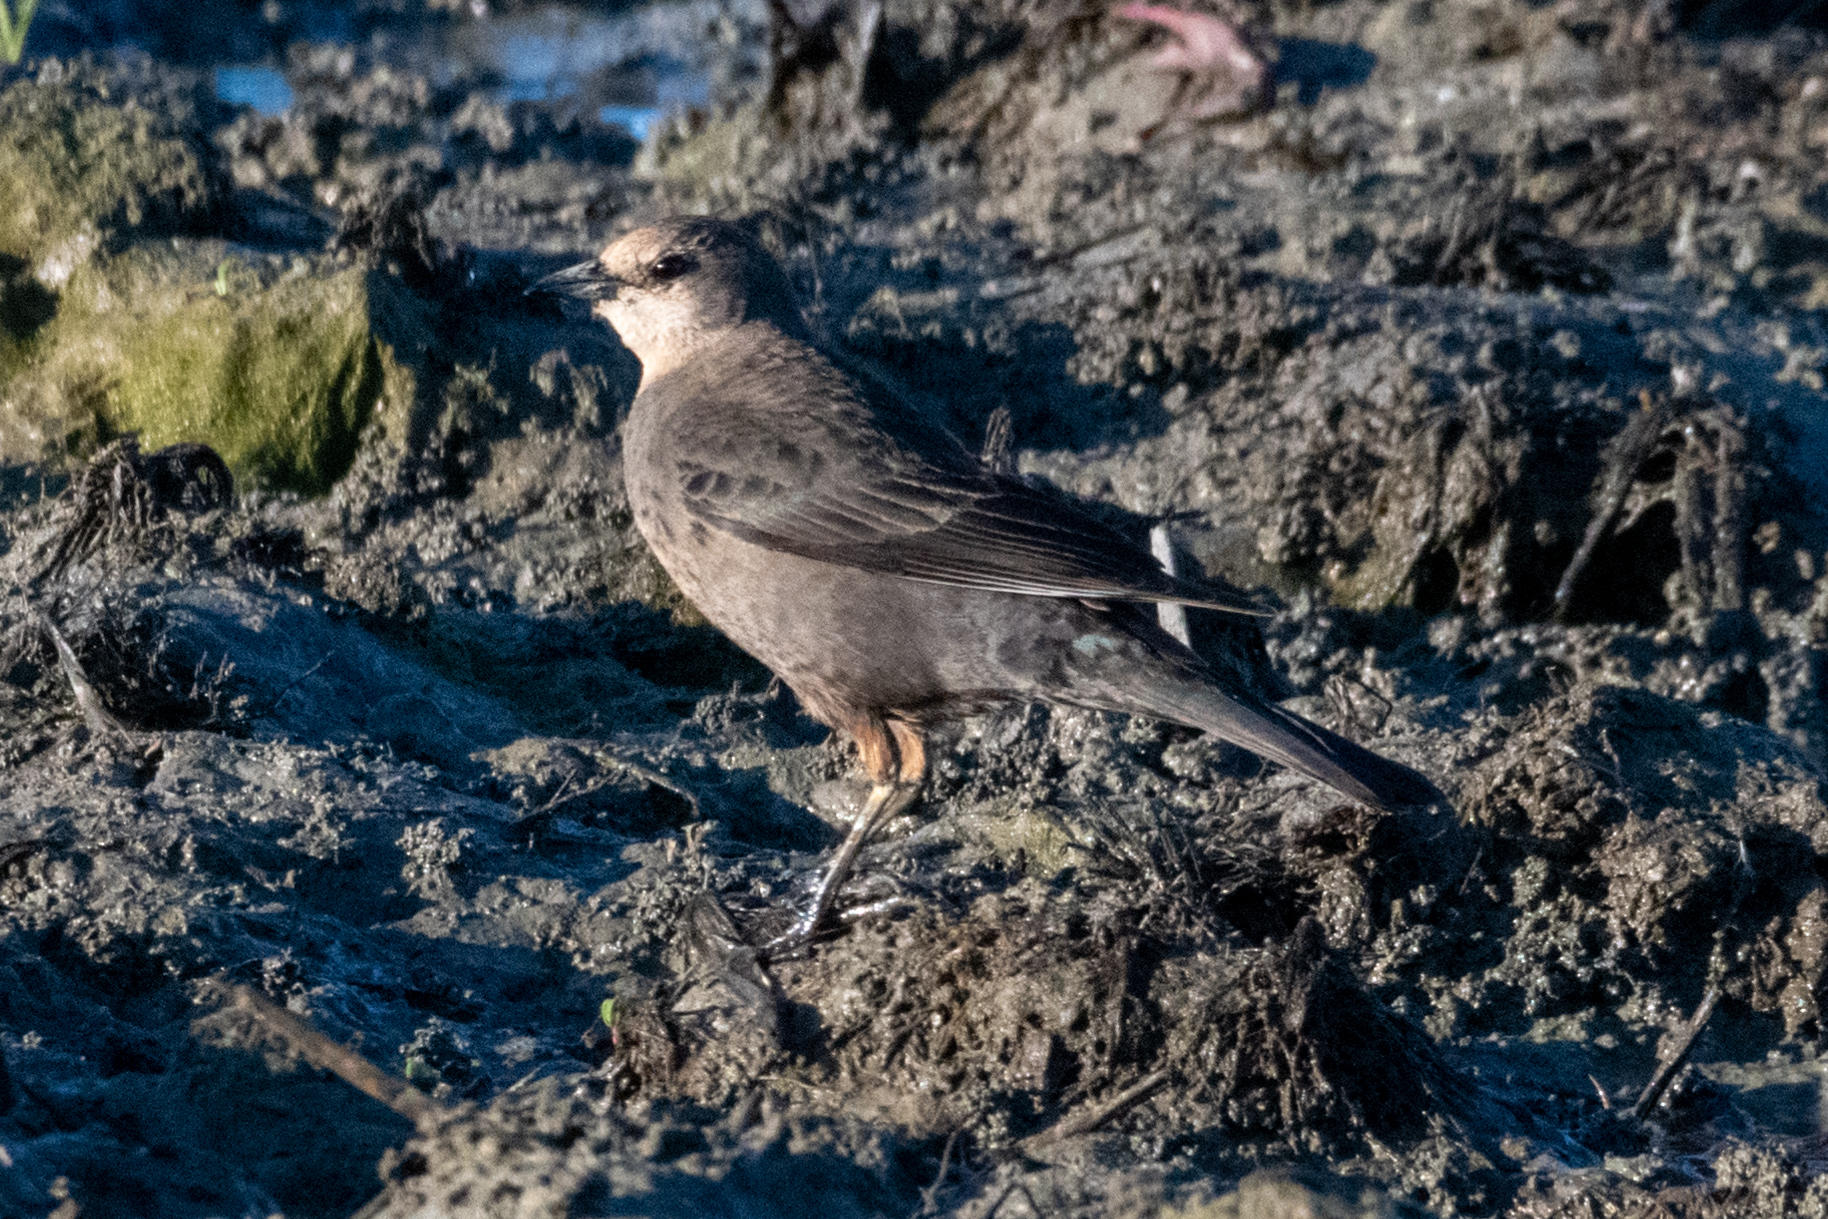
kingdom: Animalia
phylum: Chordata
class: Aves
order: Passeriformes
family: Icteridae
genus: Euphagus
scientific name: Euphagus cyanocephalus
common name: Brewer's blackbird
